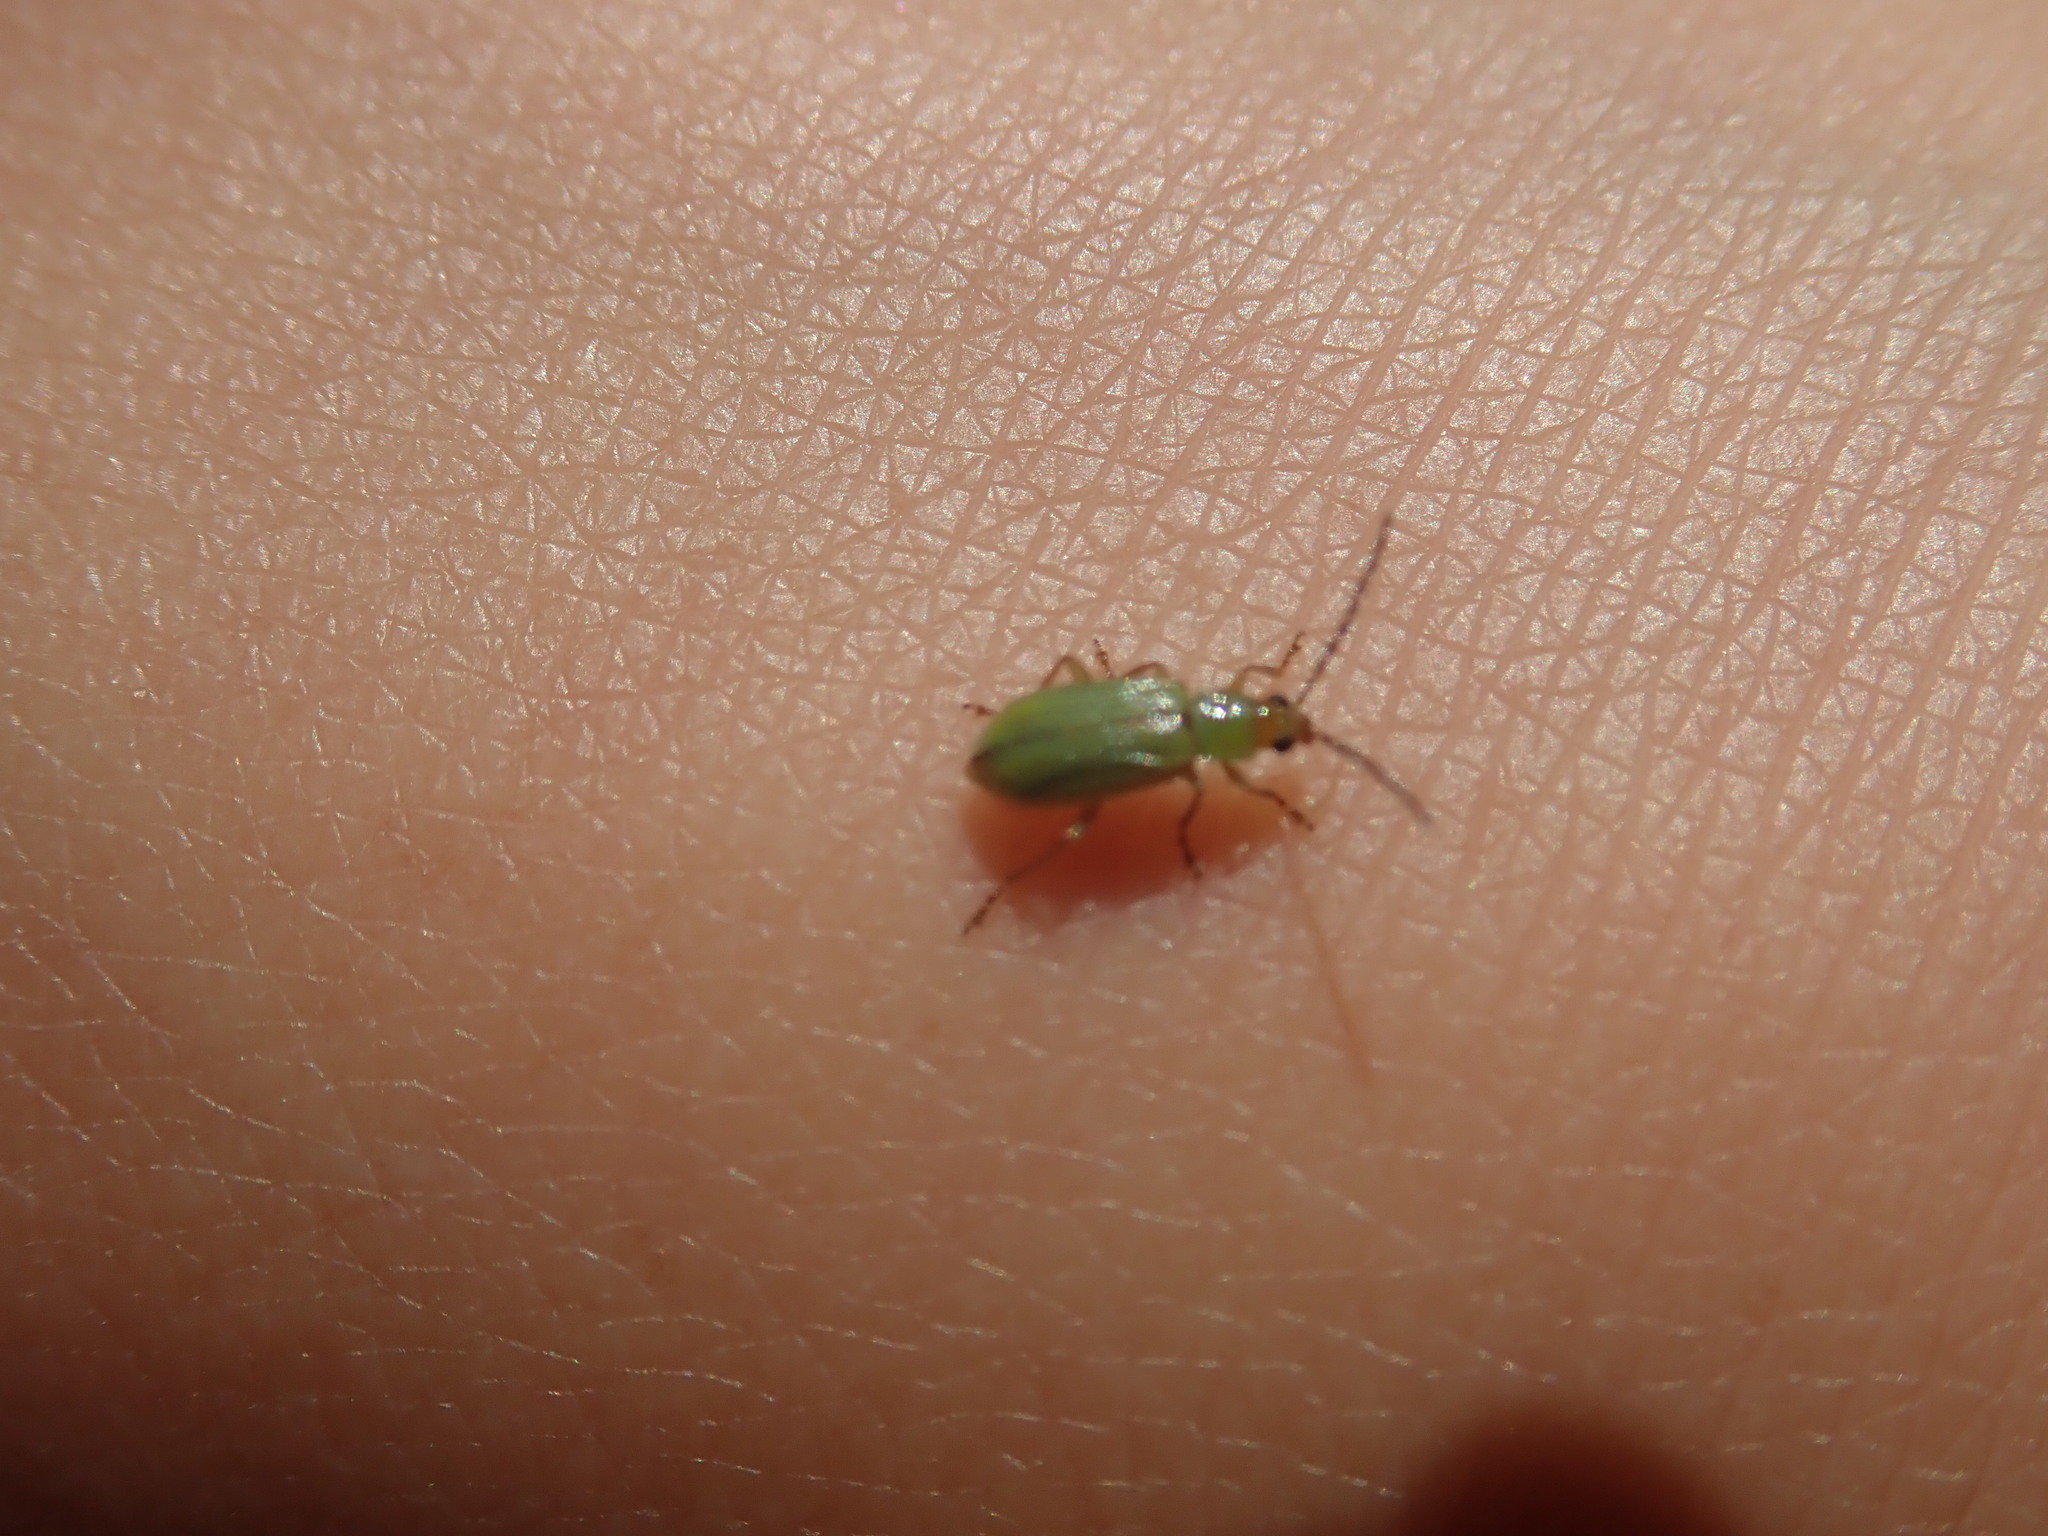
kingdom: Animalia
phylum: Arthropoda
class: Insecta
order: Coleoptera
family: Chrysomelidae
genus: Diabrotica
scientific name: Diabrotica barberi
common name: Northern corn rootworm
